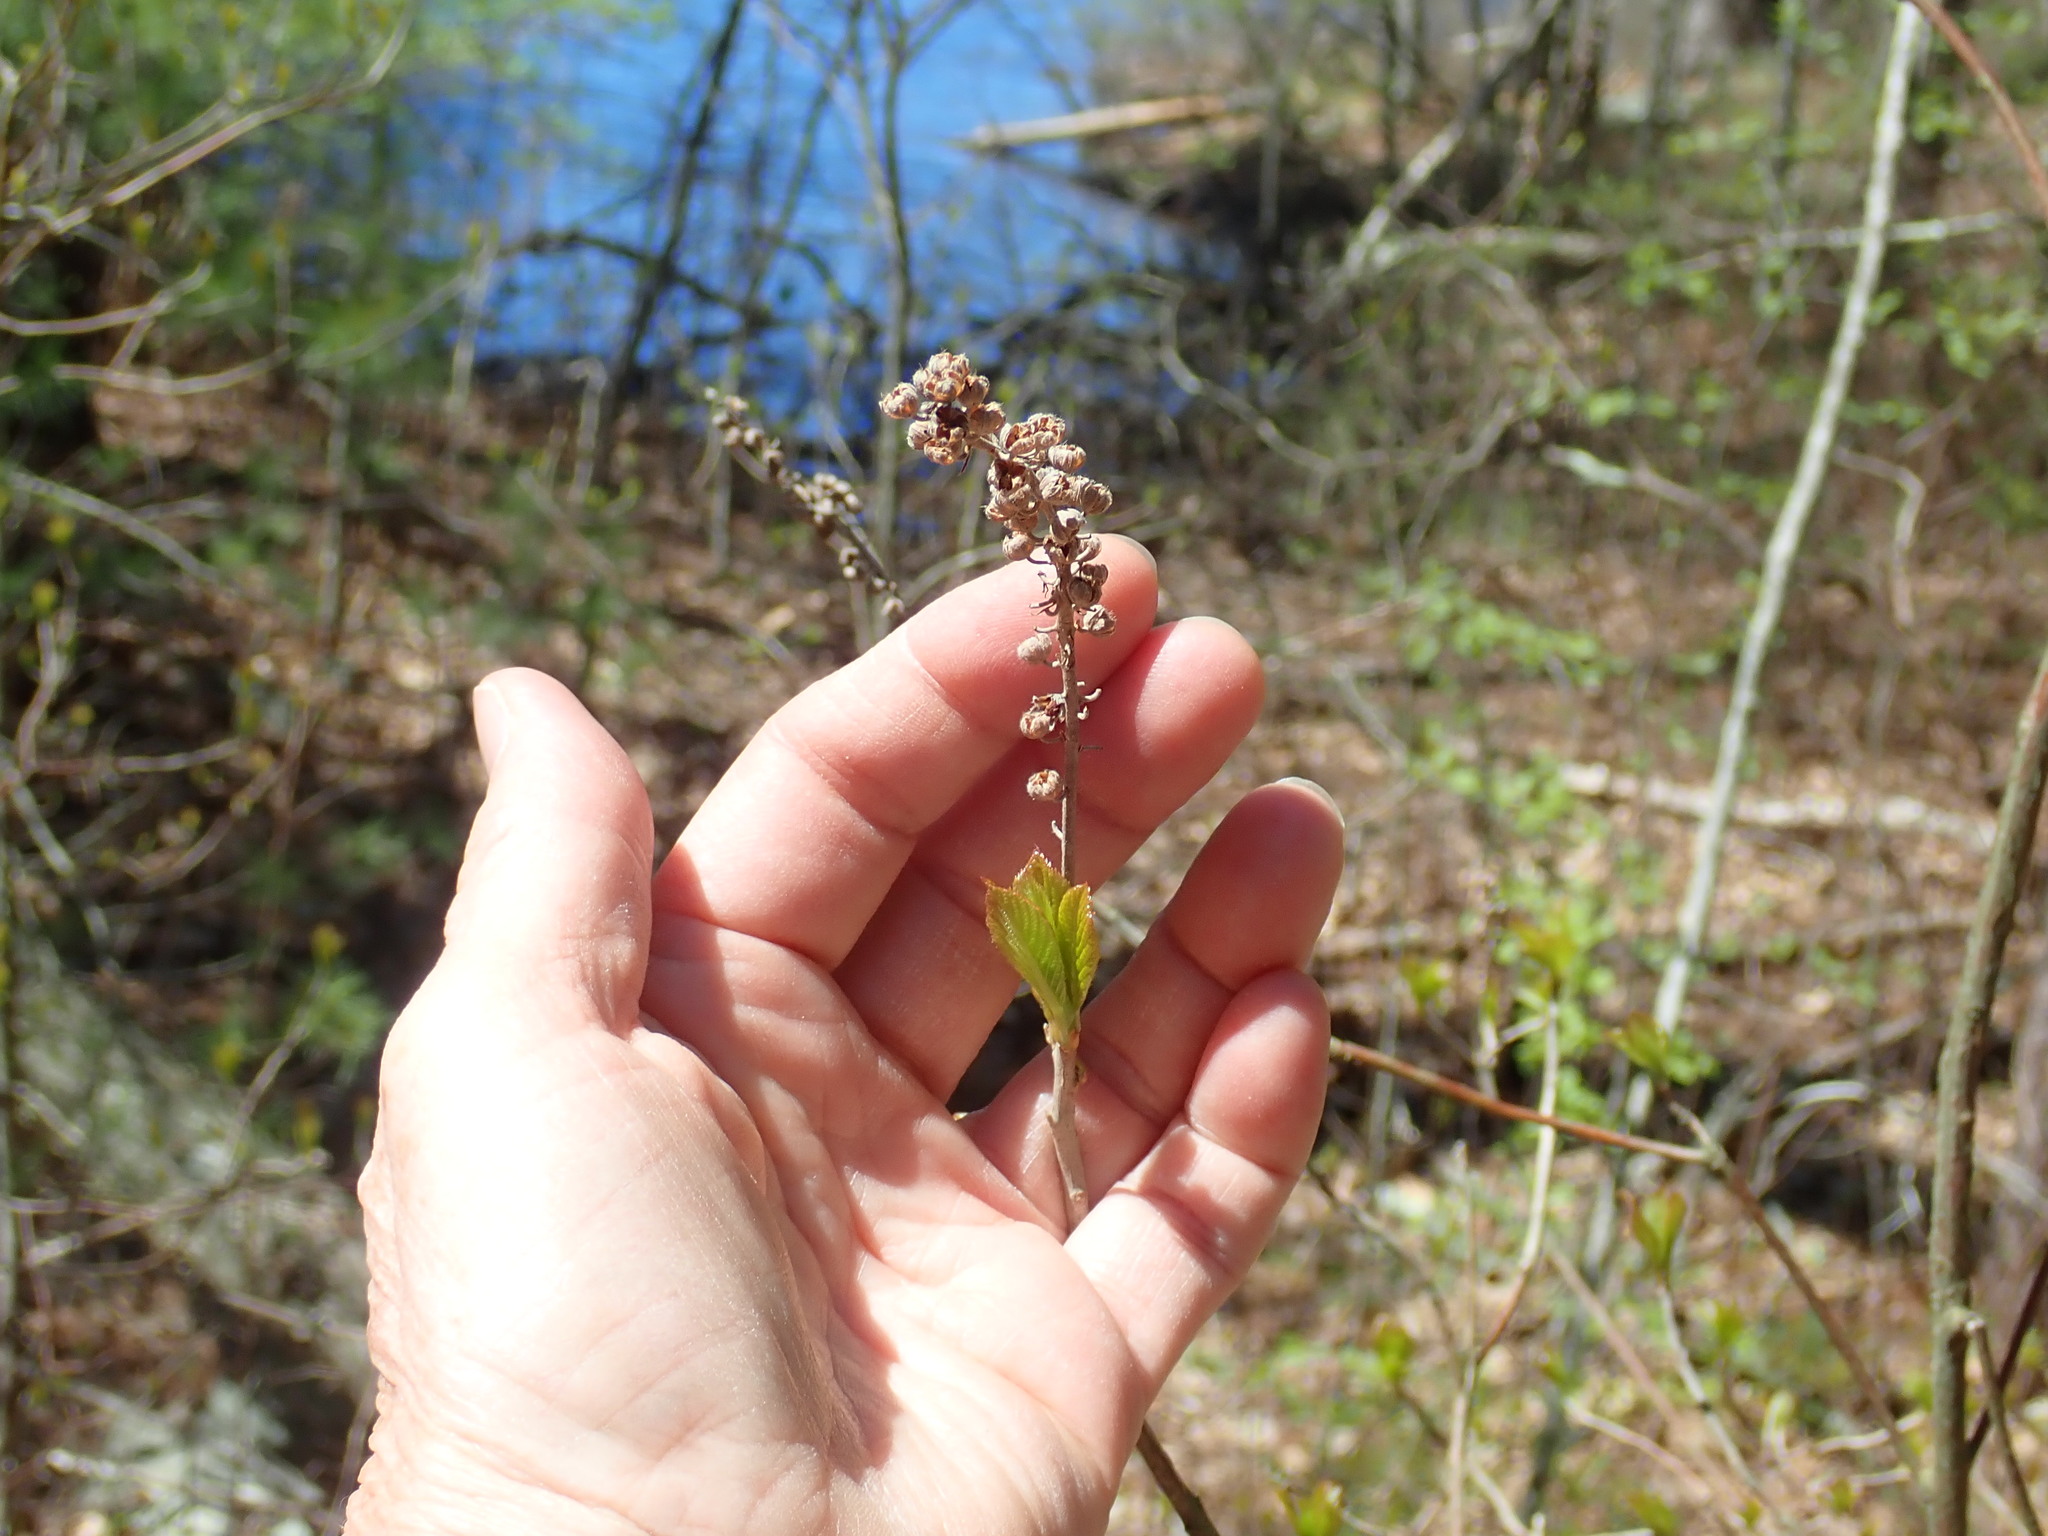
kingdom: Plantae
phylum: Tracheophyta
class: Magnoliopsida
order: Ericales
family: Clethraceae
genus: Clethra
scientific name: Clethra alnifolia
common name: Sweet pepperbush
